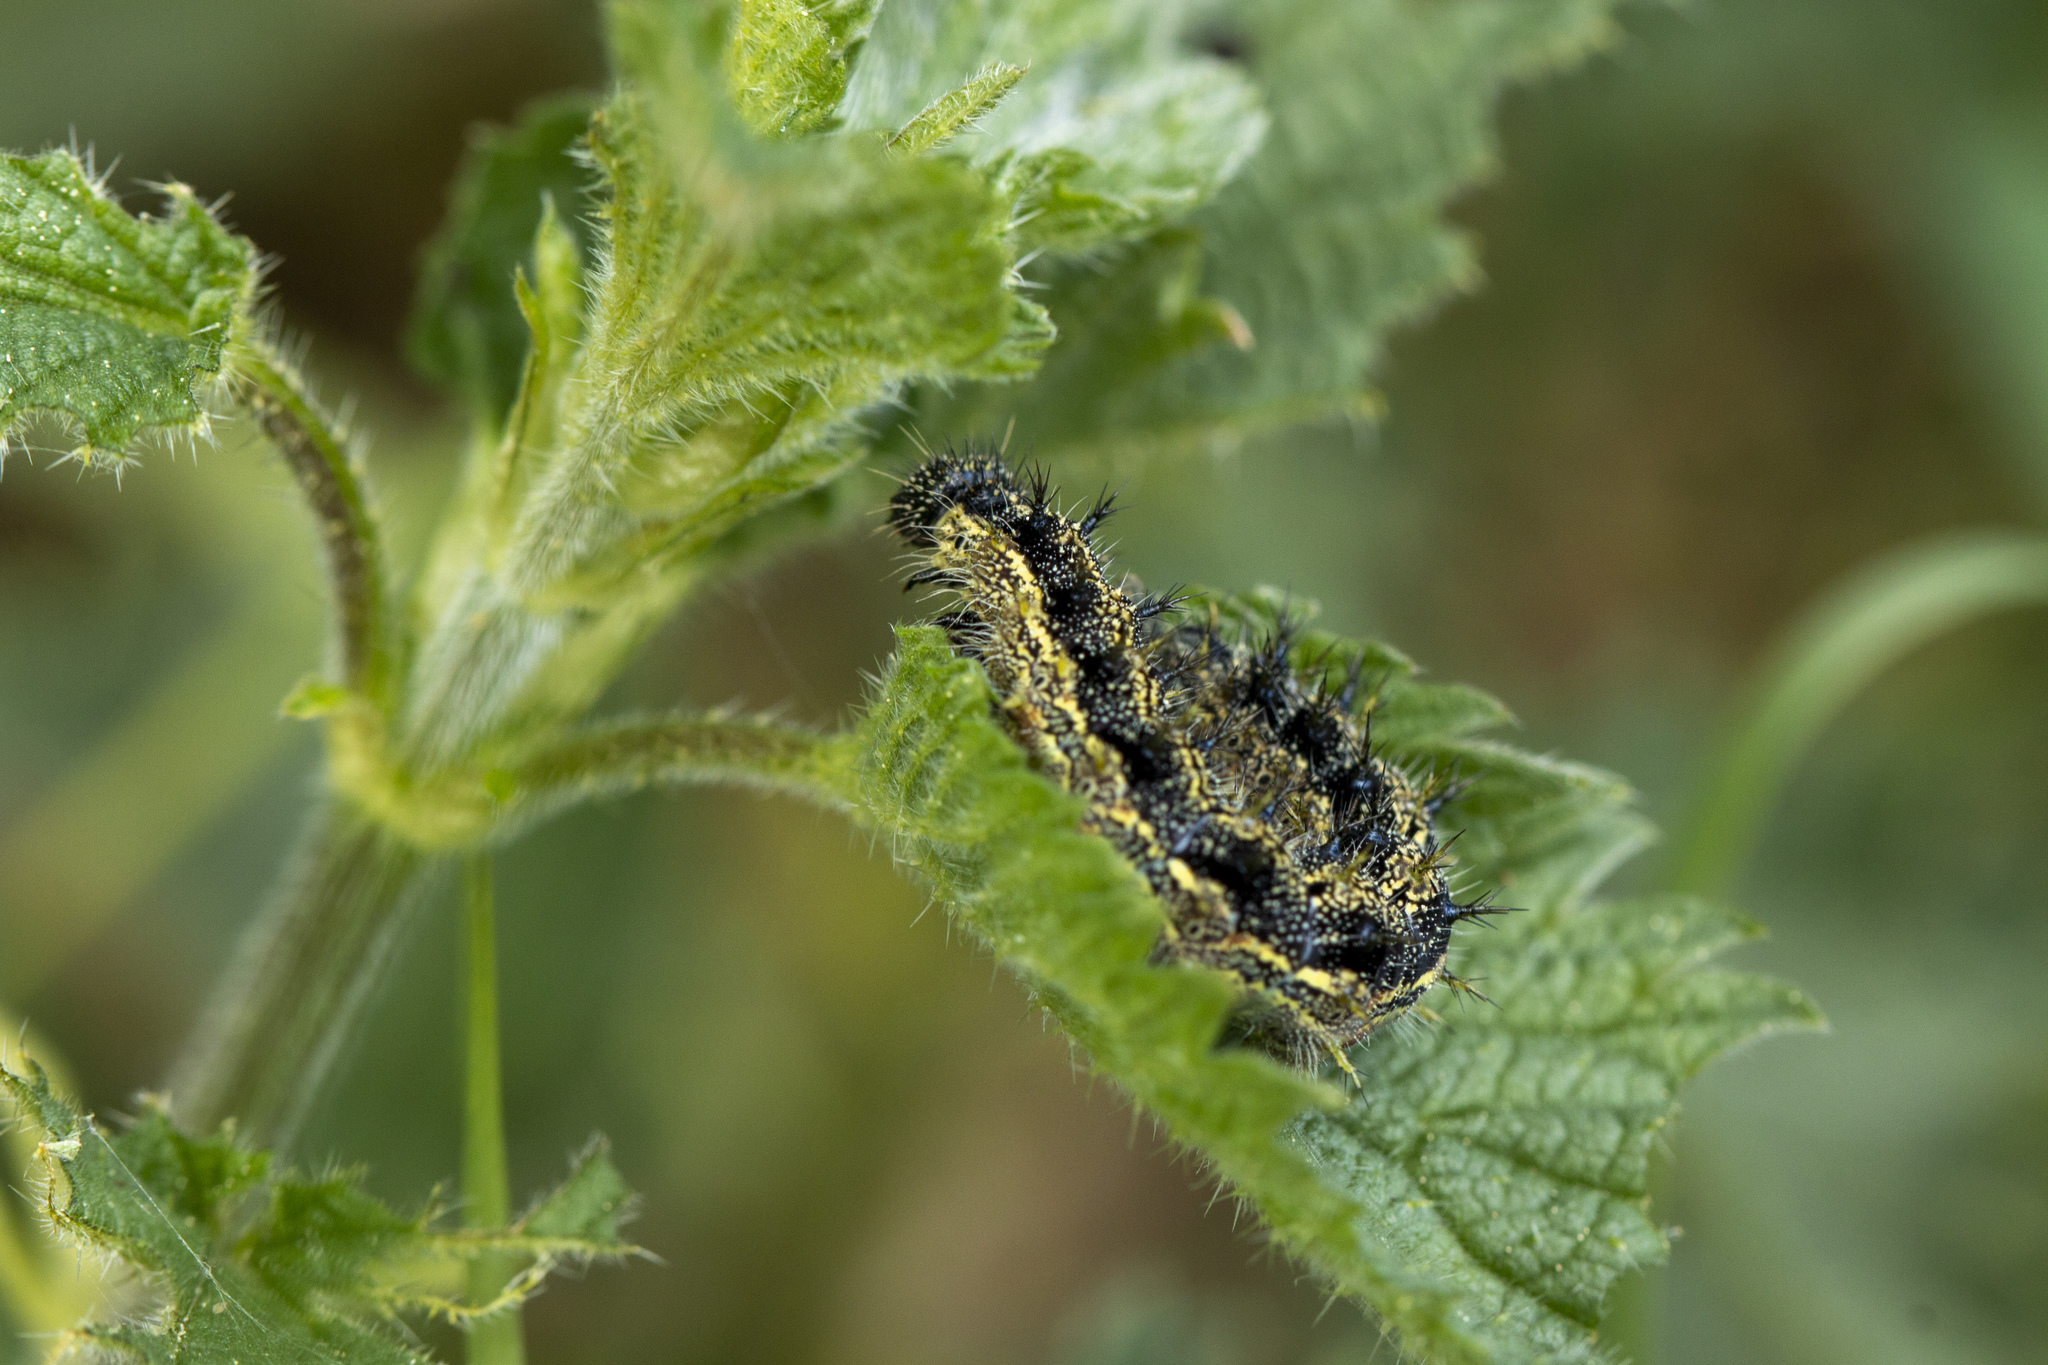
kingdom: Animalia
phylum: Arthropoda
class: Insecta
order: Lepidoptera
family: Nymphalidae
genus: Aglais
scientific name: Aglais urticae
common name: Small tortoiseshell
